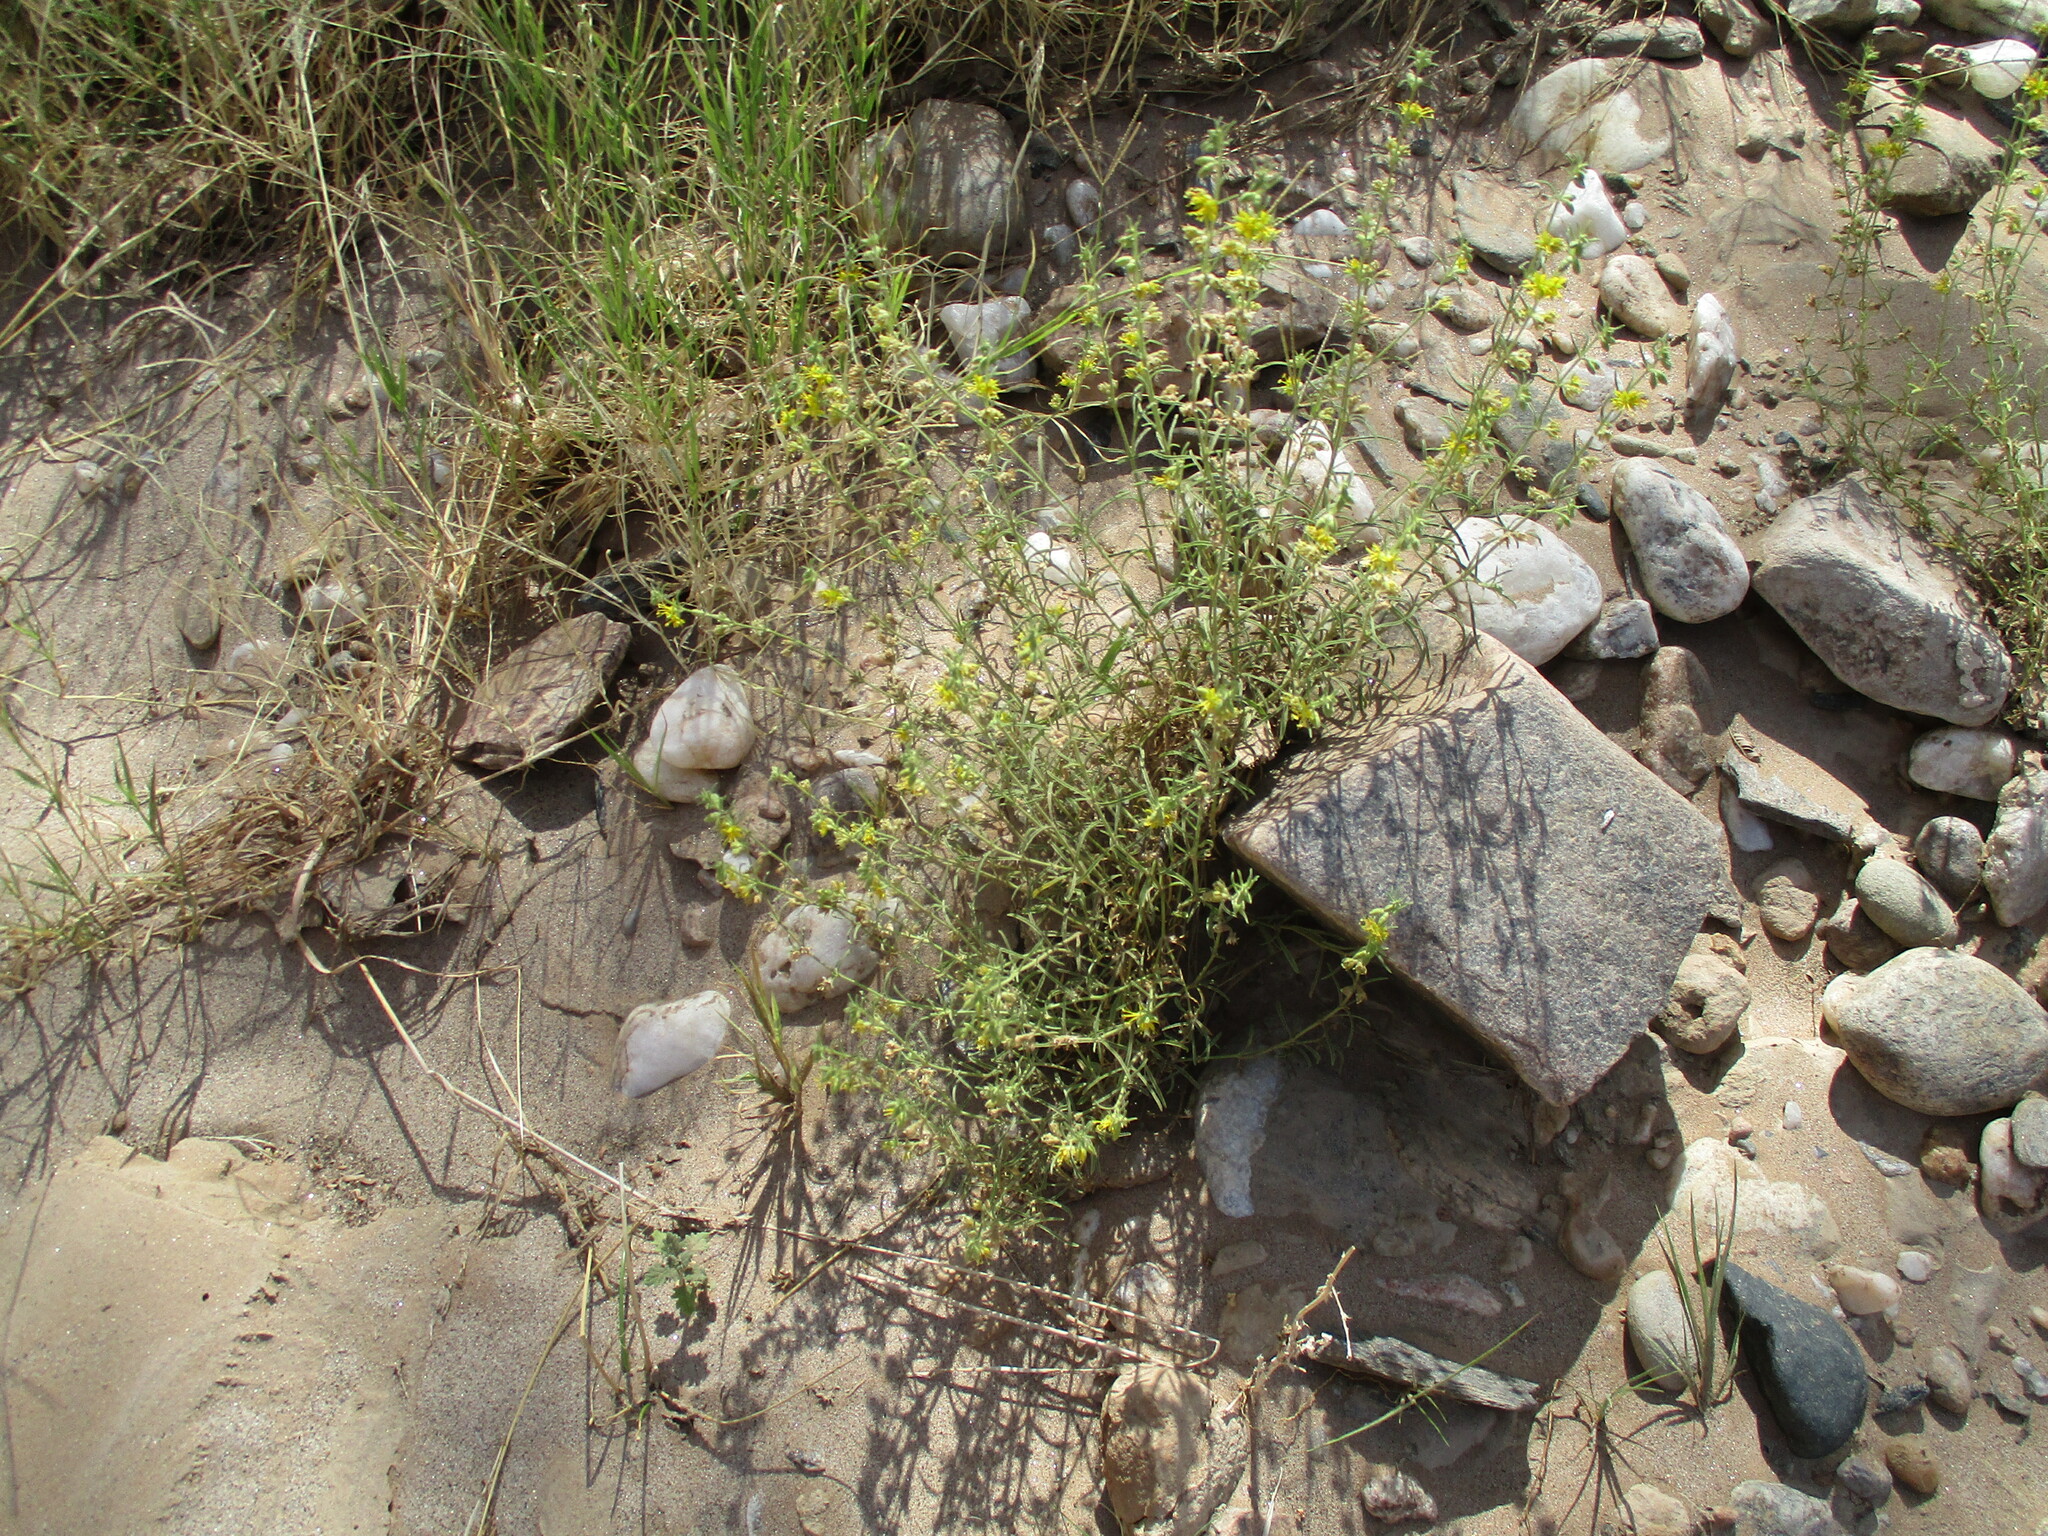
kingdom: Plantae
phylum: Tracheophyta
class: Magnoliopsida
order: Vahliales
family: Vahliaceae
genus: Vahlia
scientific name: Vahlia capensis
